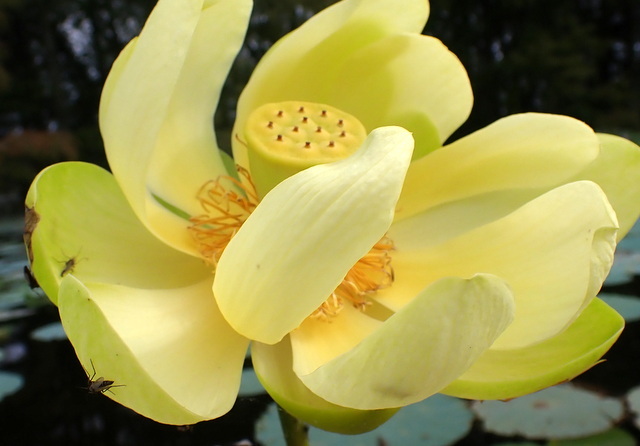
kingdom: Plantae
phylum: Tracheophyta
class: Magnoliopsida
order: Proteales
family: Nelumbonaceae
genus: Nelumbo
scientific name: Nelumbo lutea
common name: American lotus
